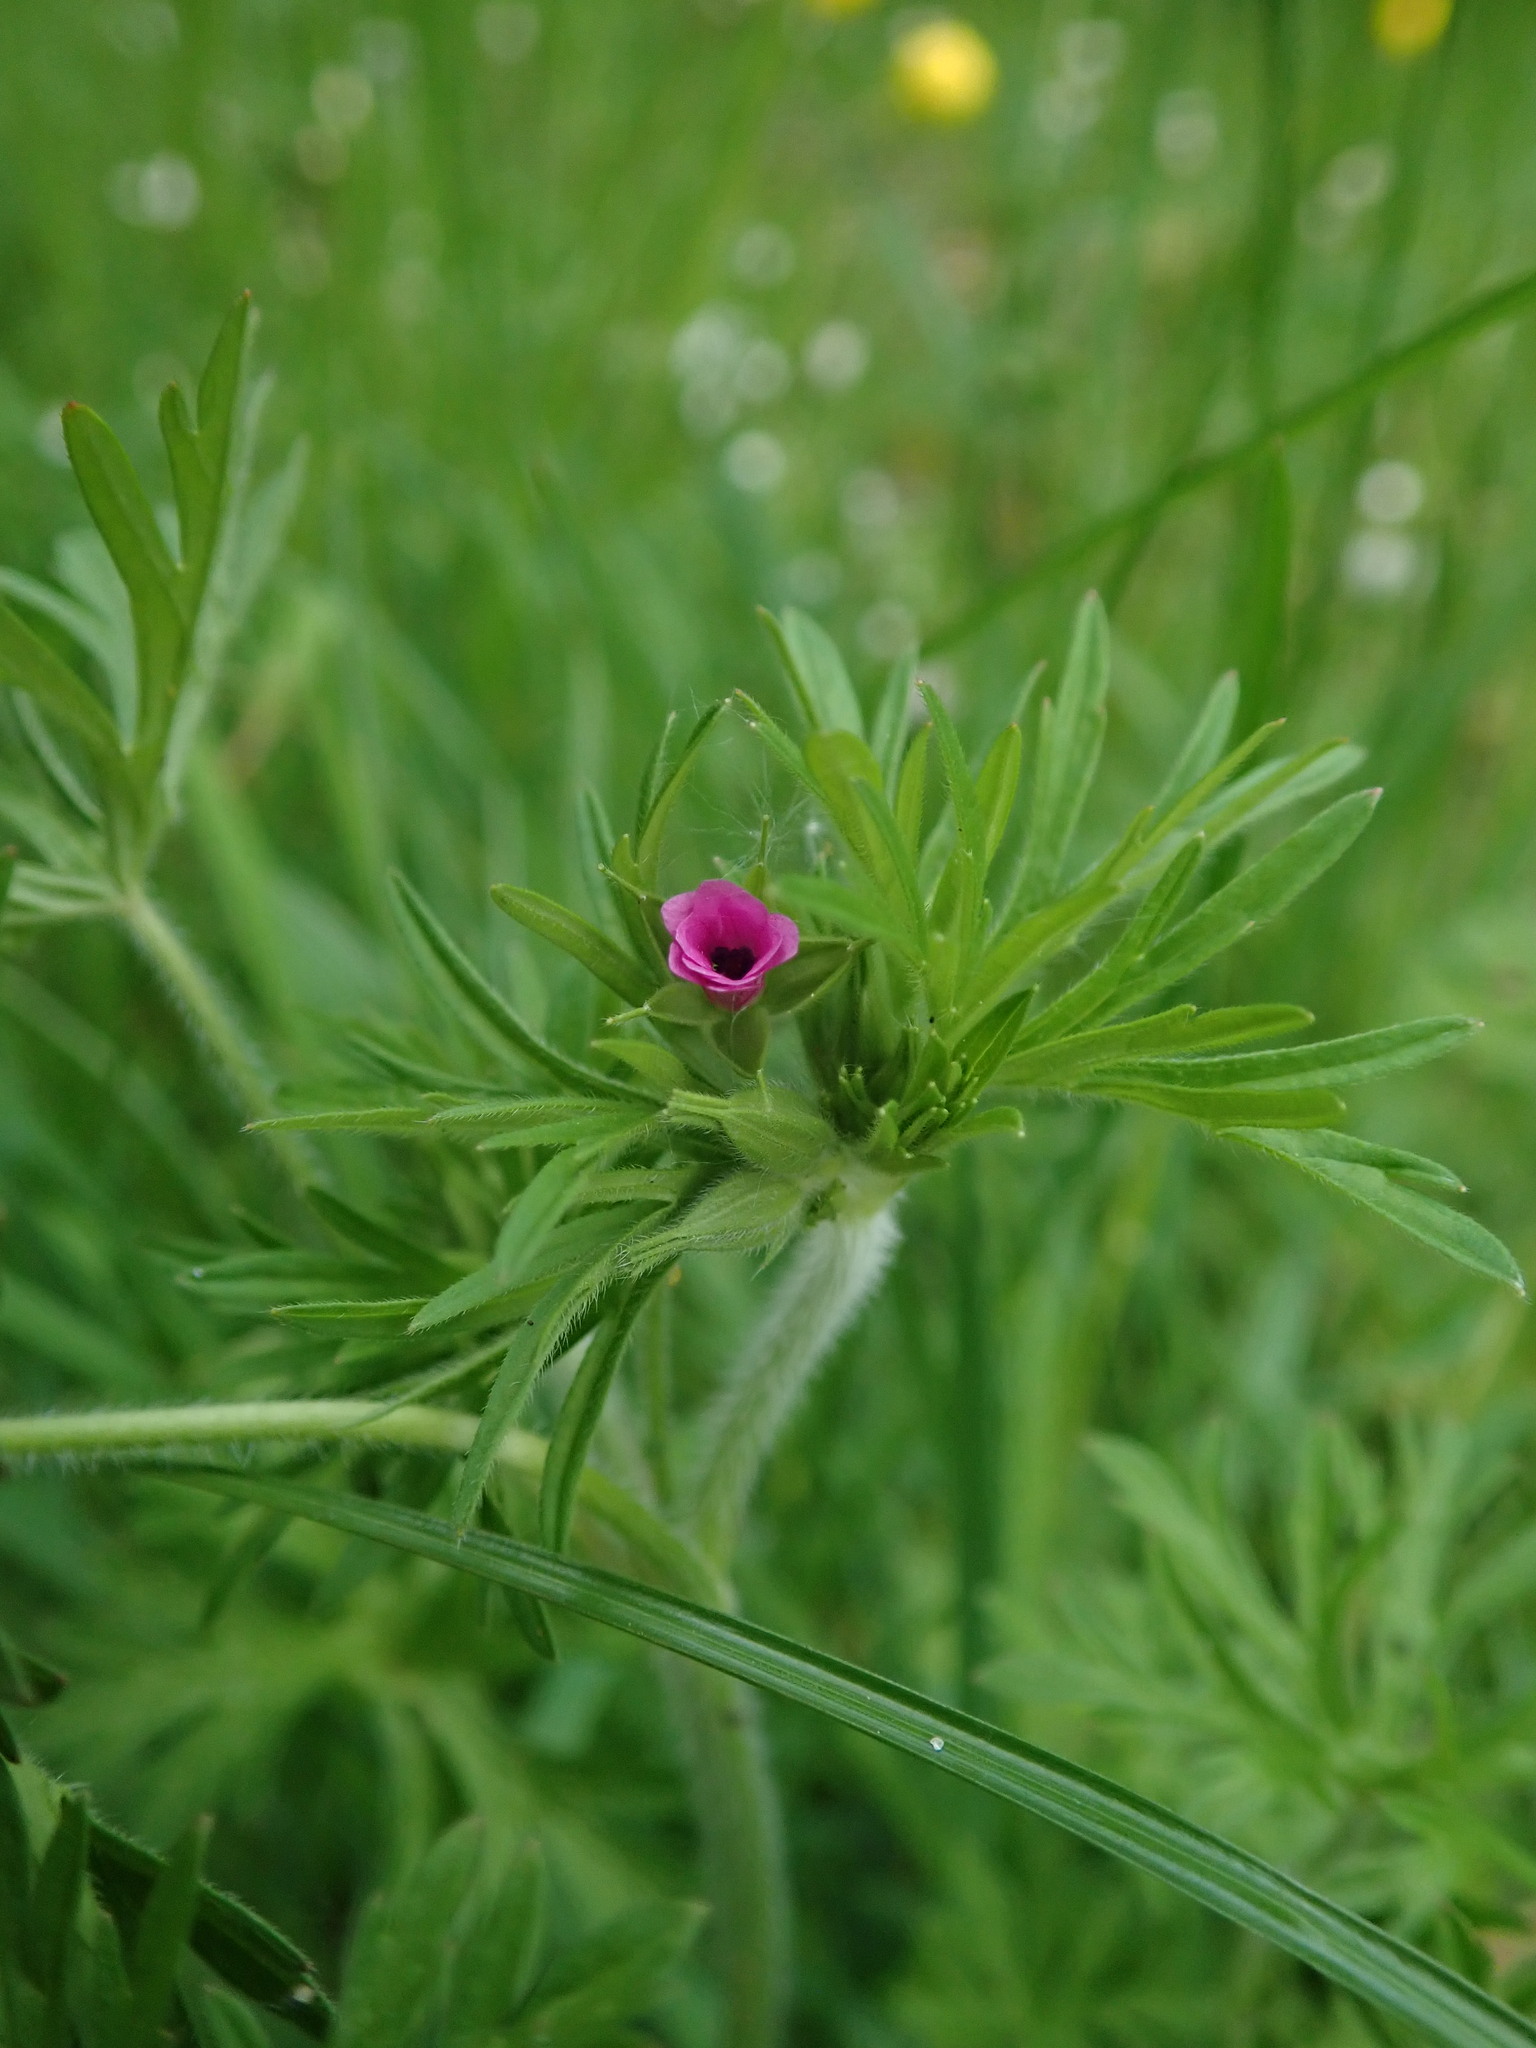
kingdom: Plantae
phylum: Tracheophyta
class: Magnoliopsida
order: Geraniales
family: Geraniaceae
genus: Geranium
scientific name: Geranium dissectum
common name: Cut-leaved crane's-bill
